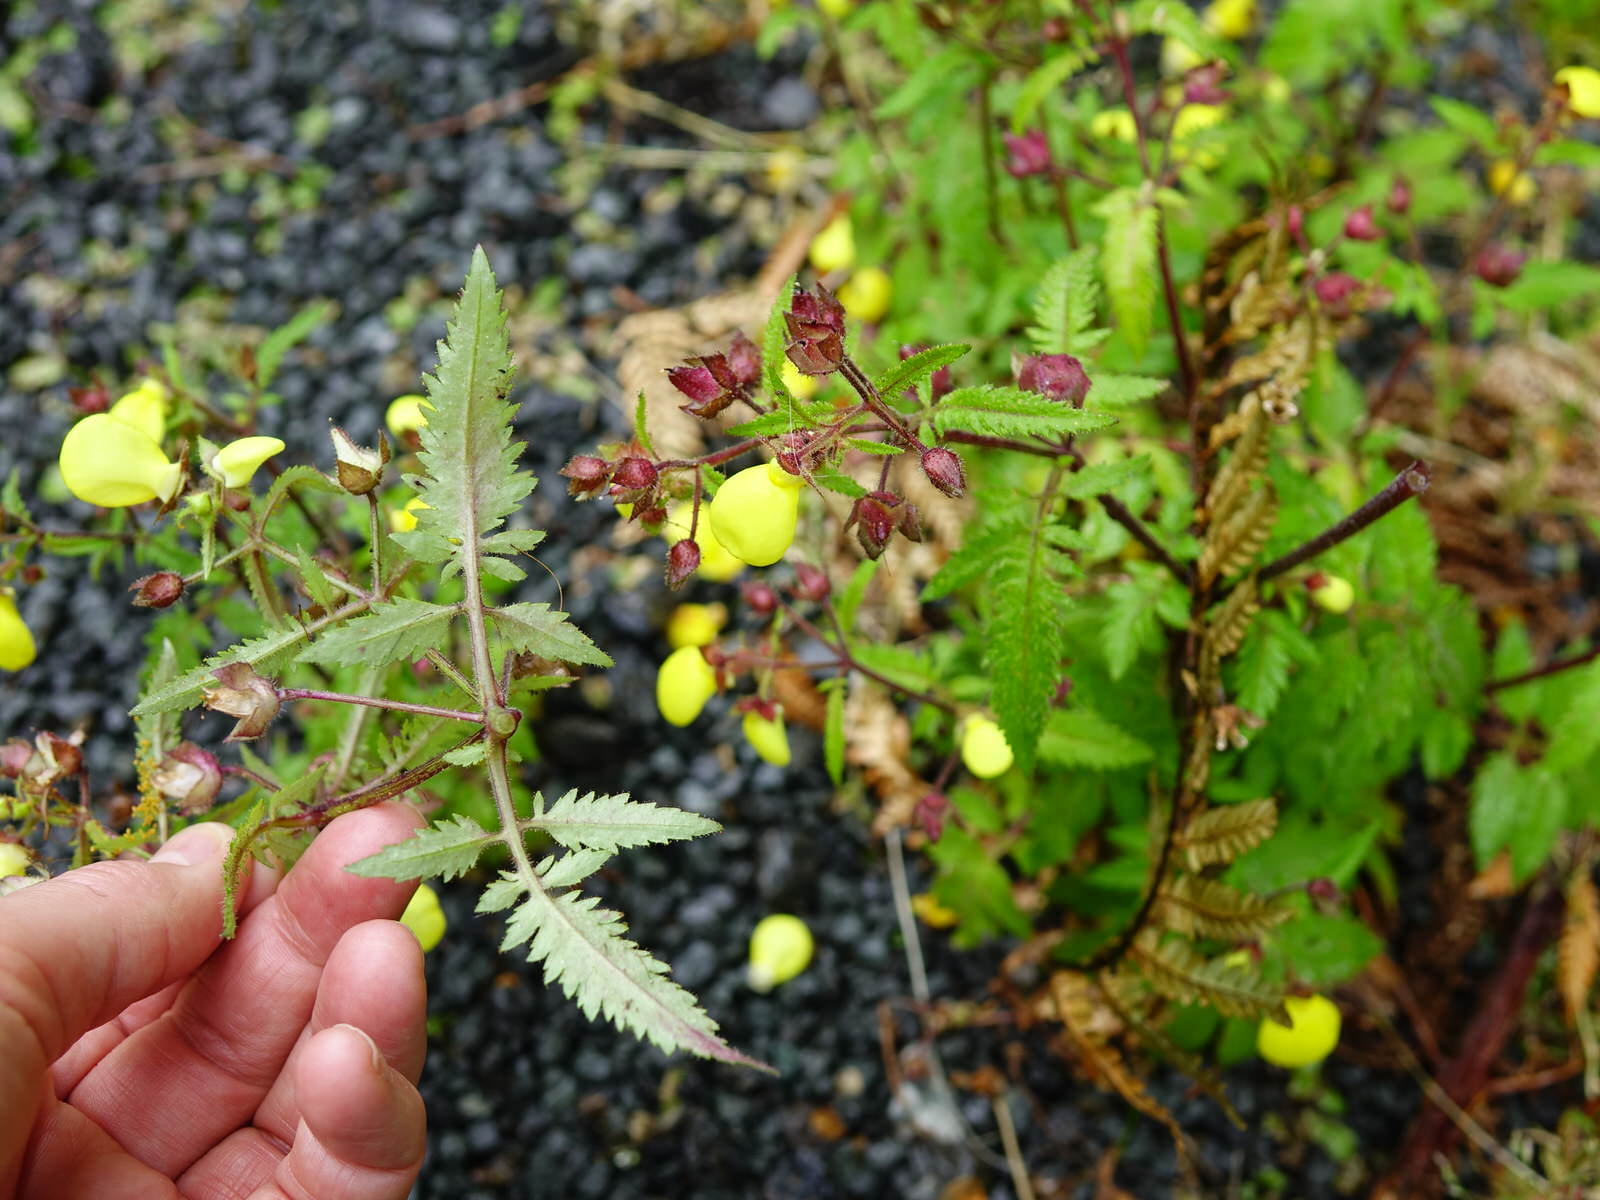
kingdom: Plantae
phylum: Tracheophyta
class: Magnoliopsida
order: Lamiales
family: Calceolariaceae
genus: Calceolaria
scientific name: Calceolaria tripartita
